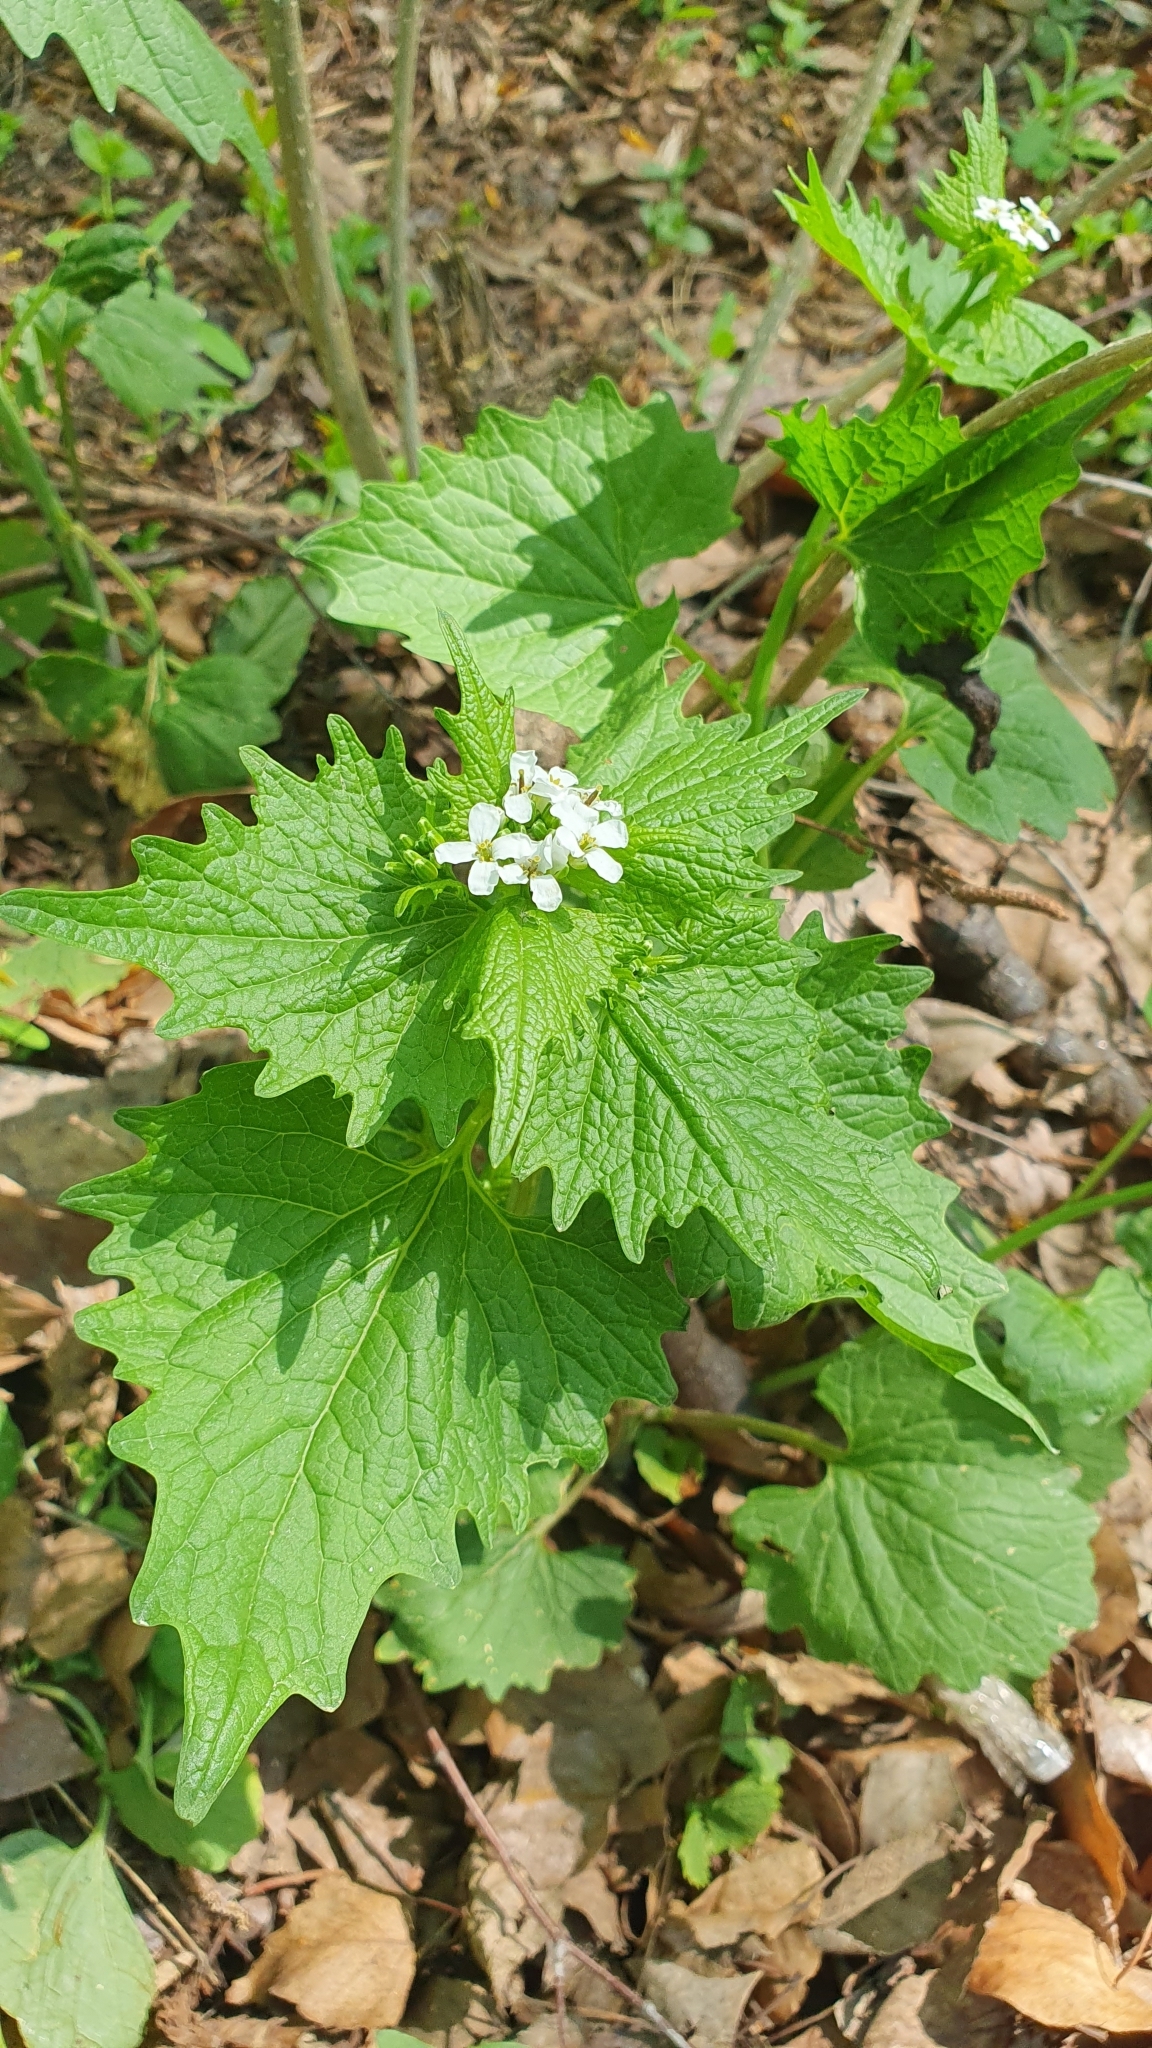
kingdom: Plantae
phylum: Tracheophyta
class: Magnoliopsida
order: Brassicales
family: Brassicaceae
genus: Alliaria
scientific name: Alliaria petiolata
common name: Garlic mustard
